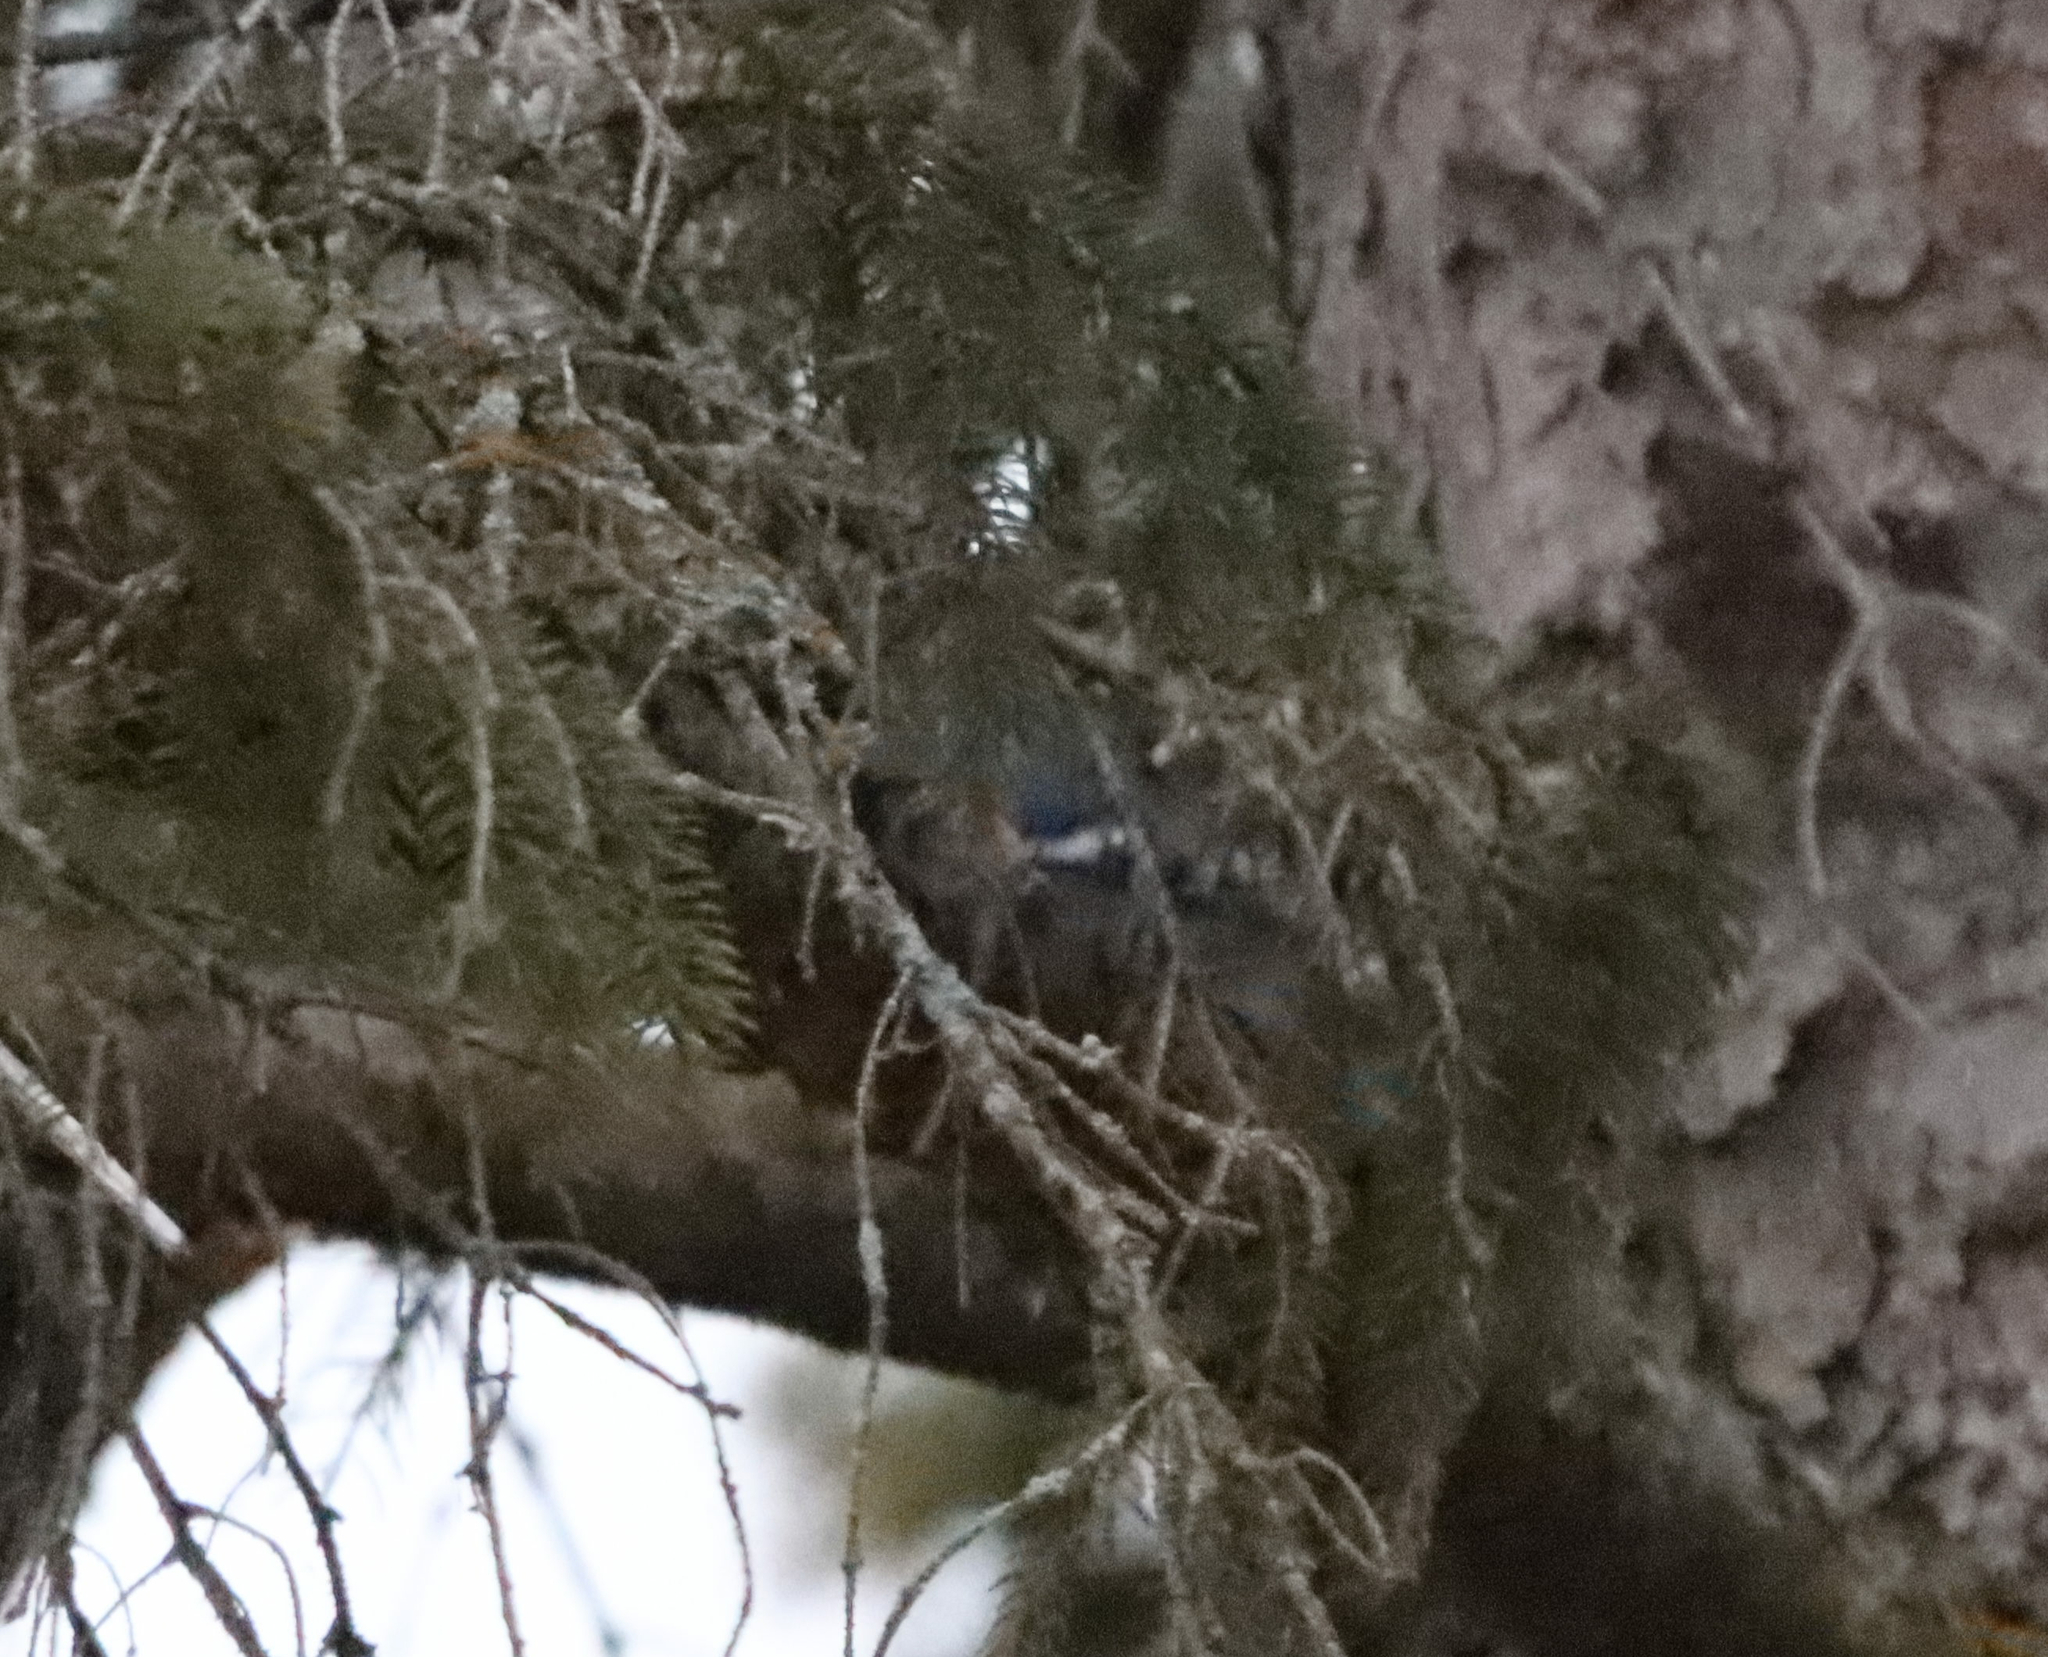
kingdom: Animalia
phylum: Chordata
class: Aves
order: Passeriformes
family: Corvidae
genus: Cyanocitta
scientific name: Cyanocitta cristata
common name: Blue jay
